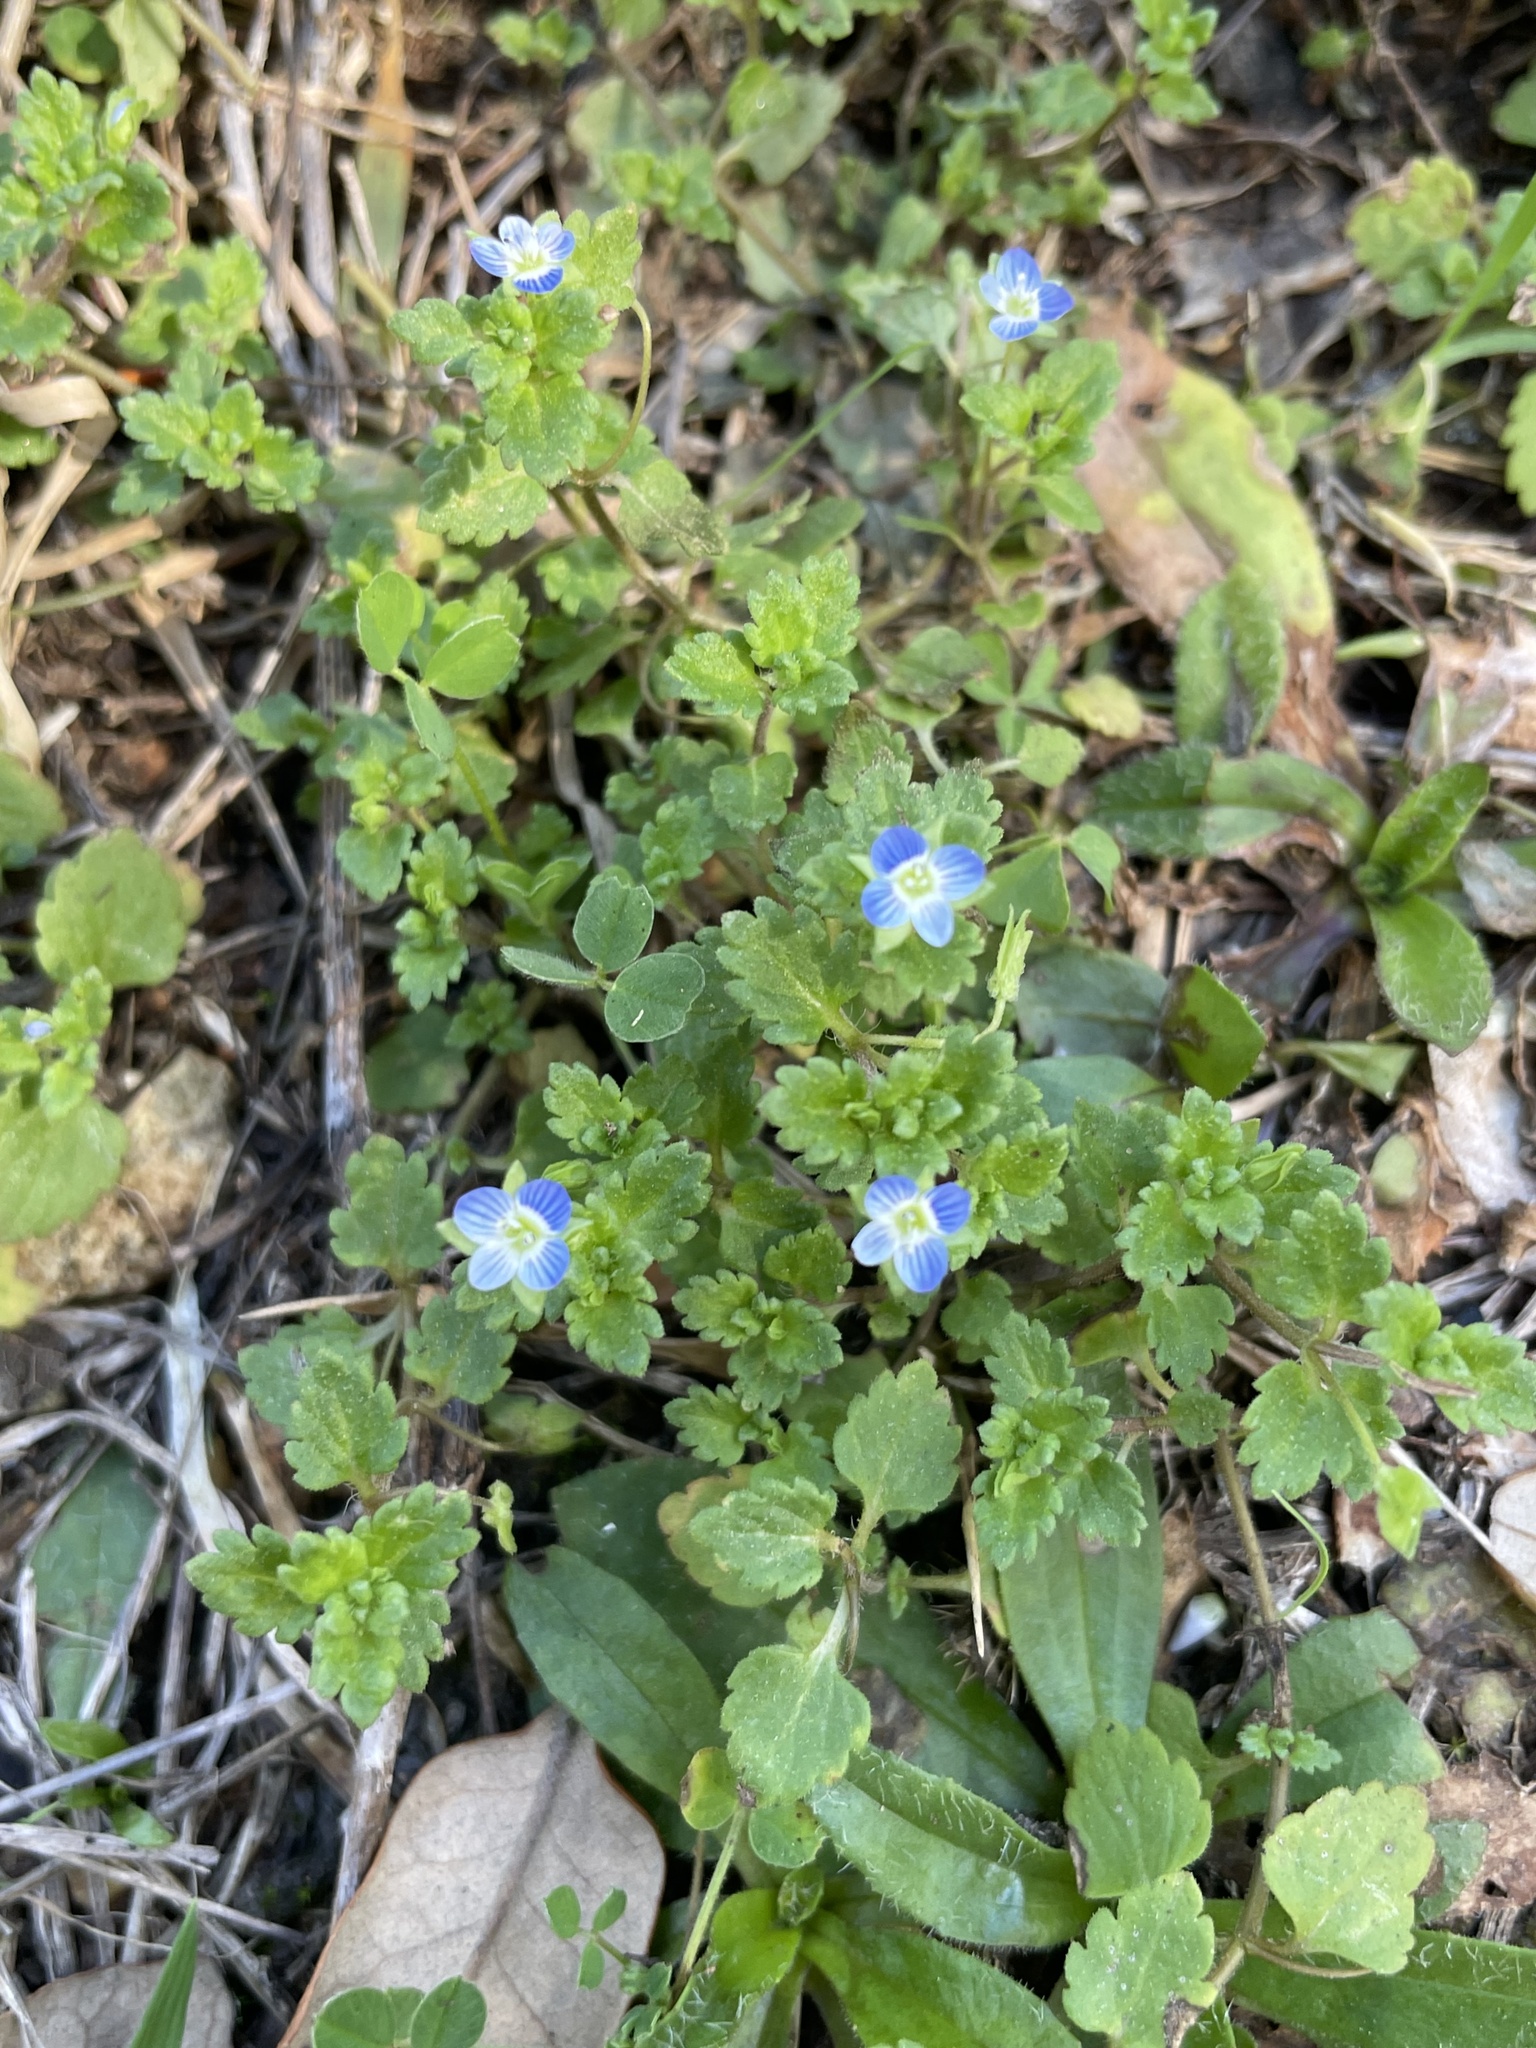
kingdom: Plantae
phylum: Tracheophyta
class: Magnoliopsida
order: Lamiales
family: Plantaginaceae
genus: Veronica
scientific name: Veronica polita
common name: Grey field-speedwell
